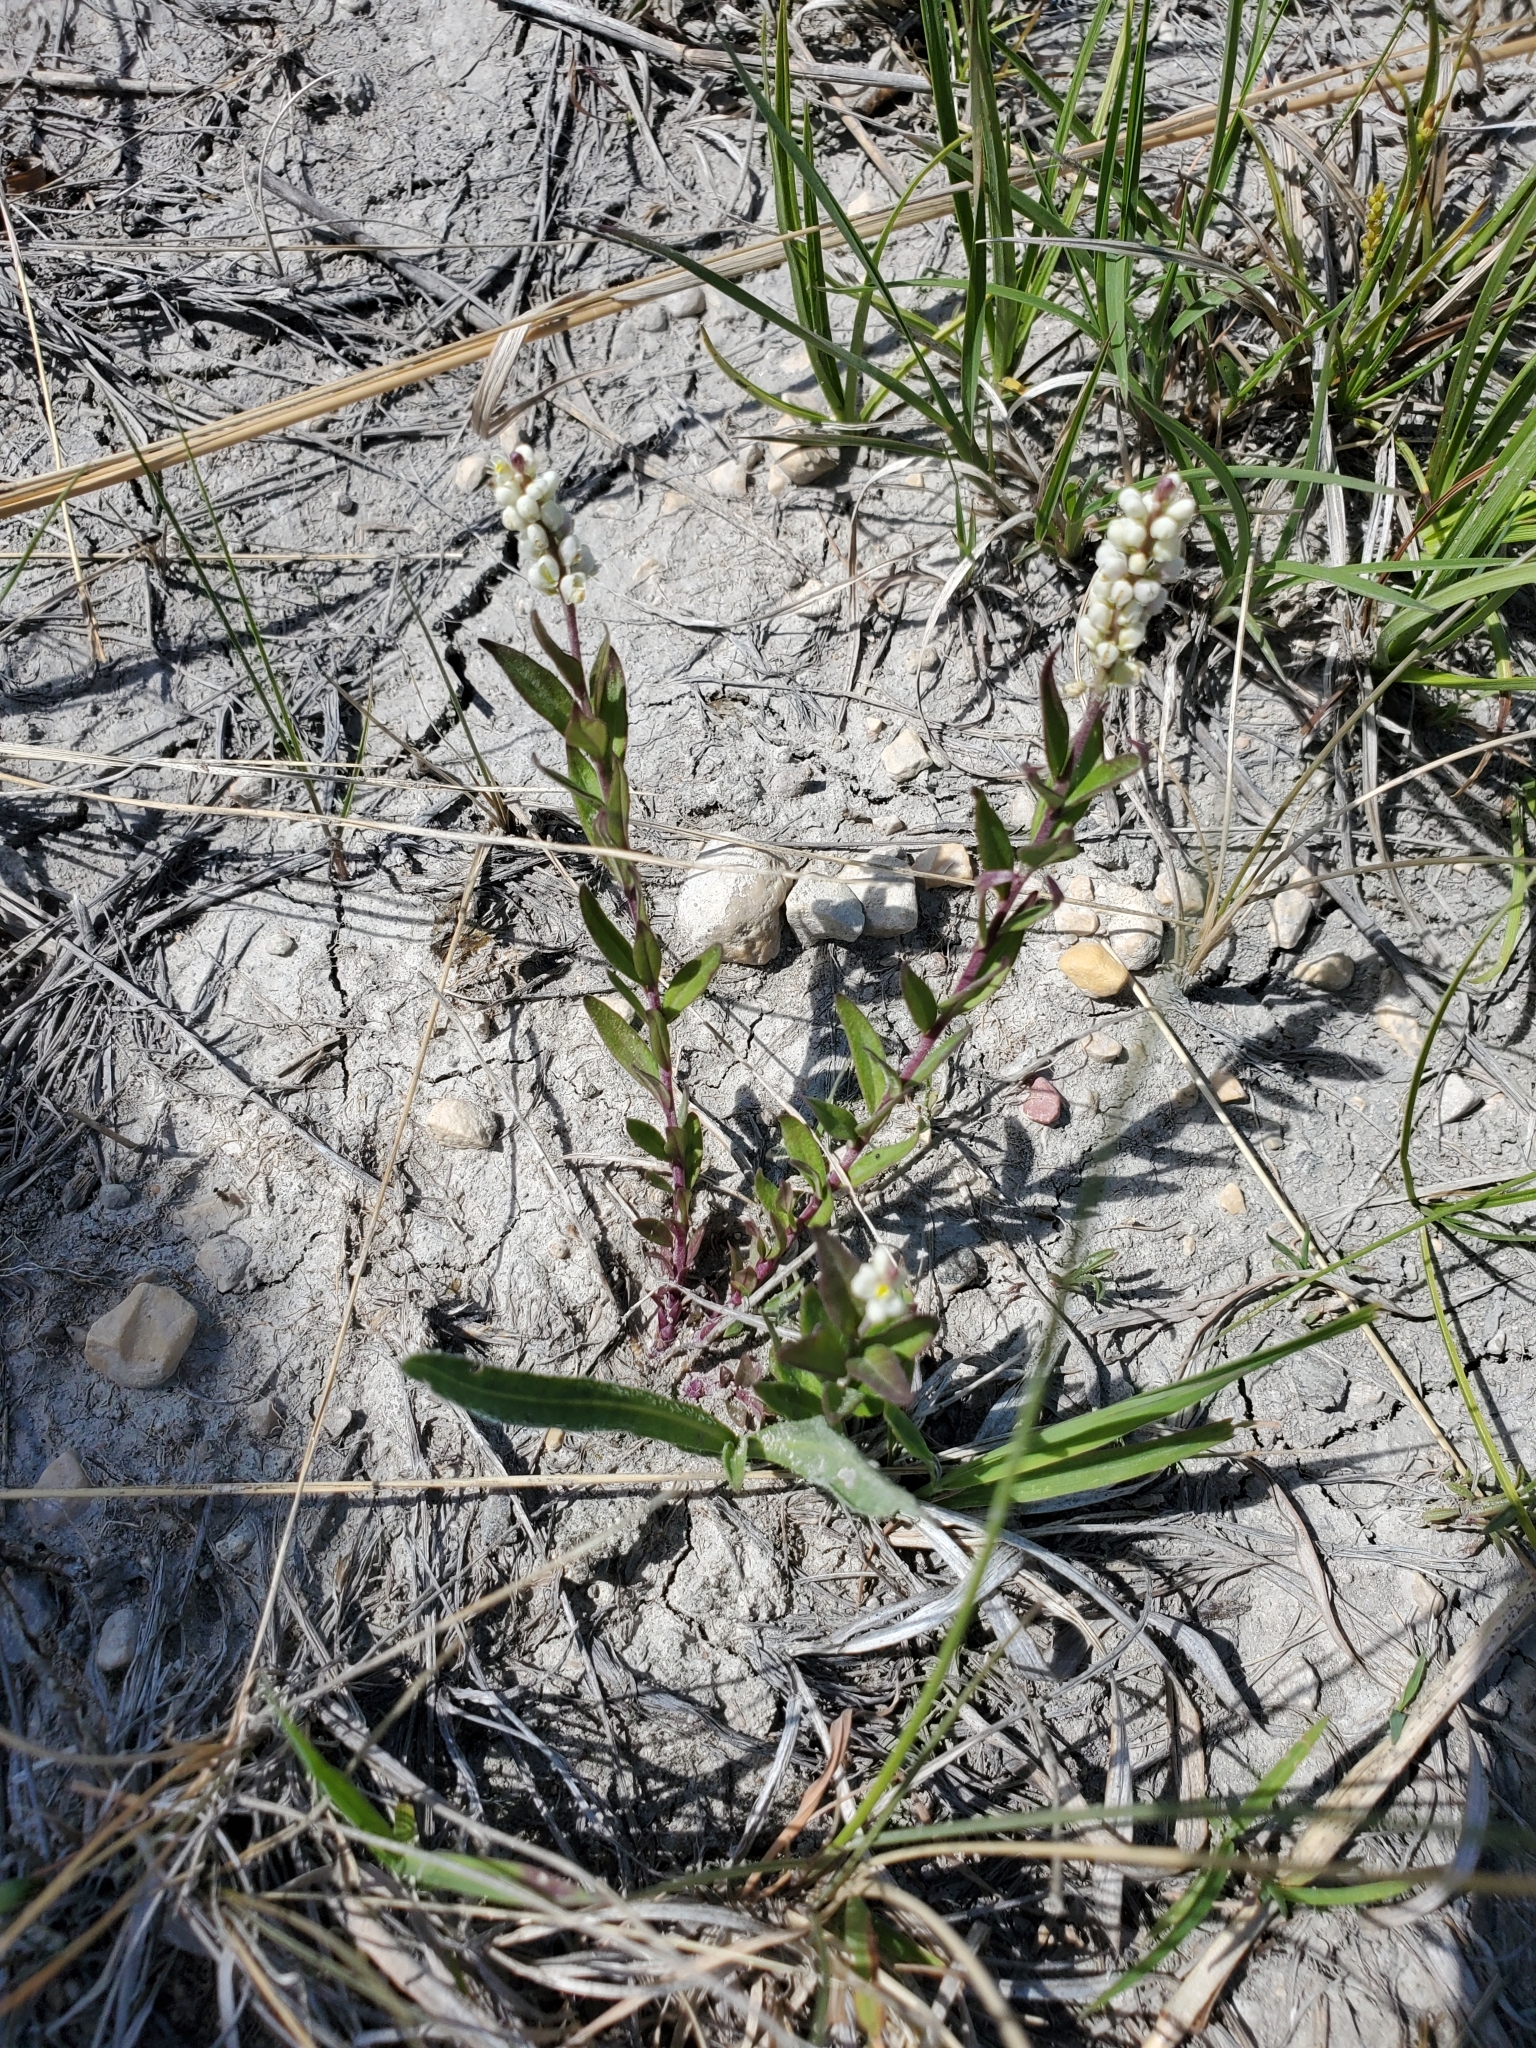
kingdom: Plantae
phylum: Tracheophyta
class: Magnoliopsida
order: Fabales
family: Polygalaceae
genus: Polygala
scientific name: Polygala senega
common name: Seneca snakeroot
